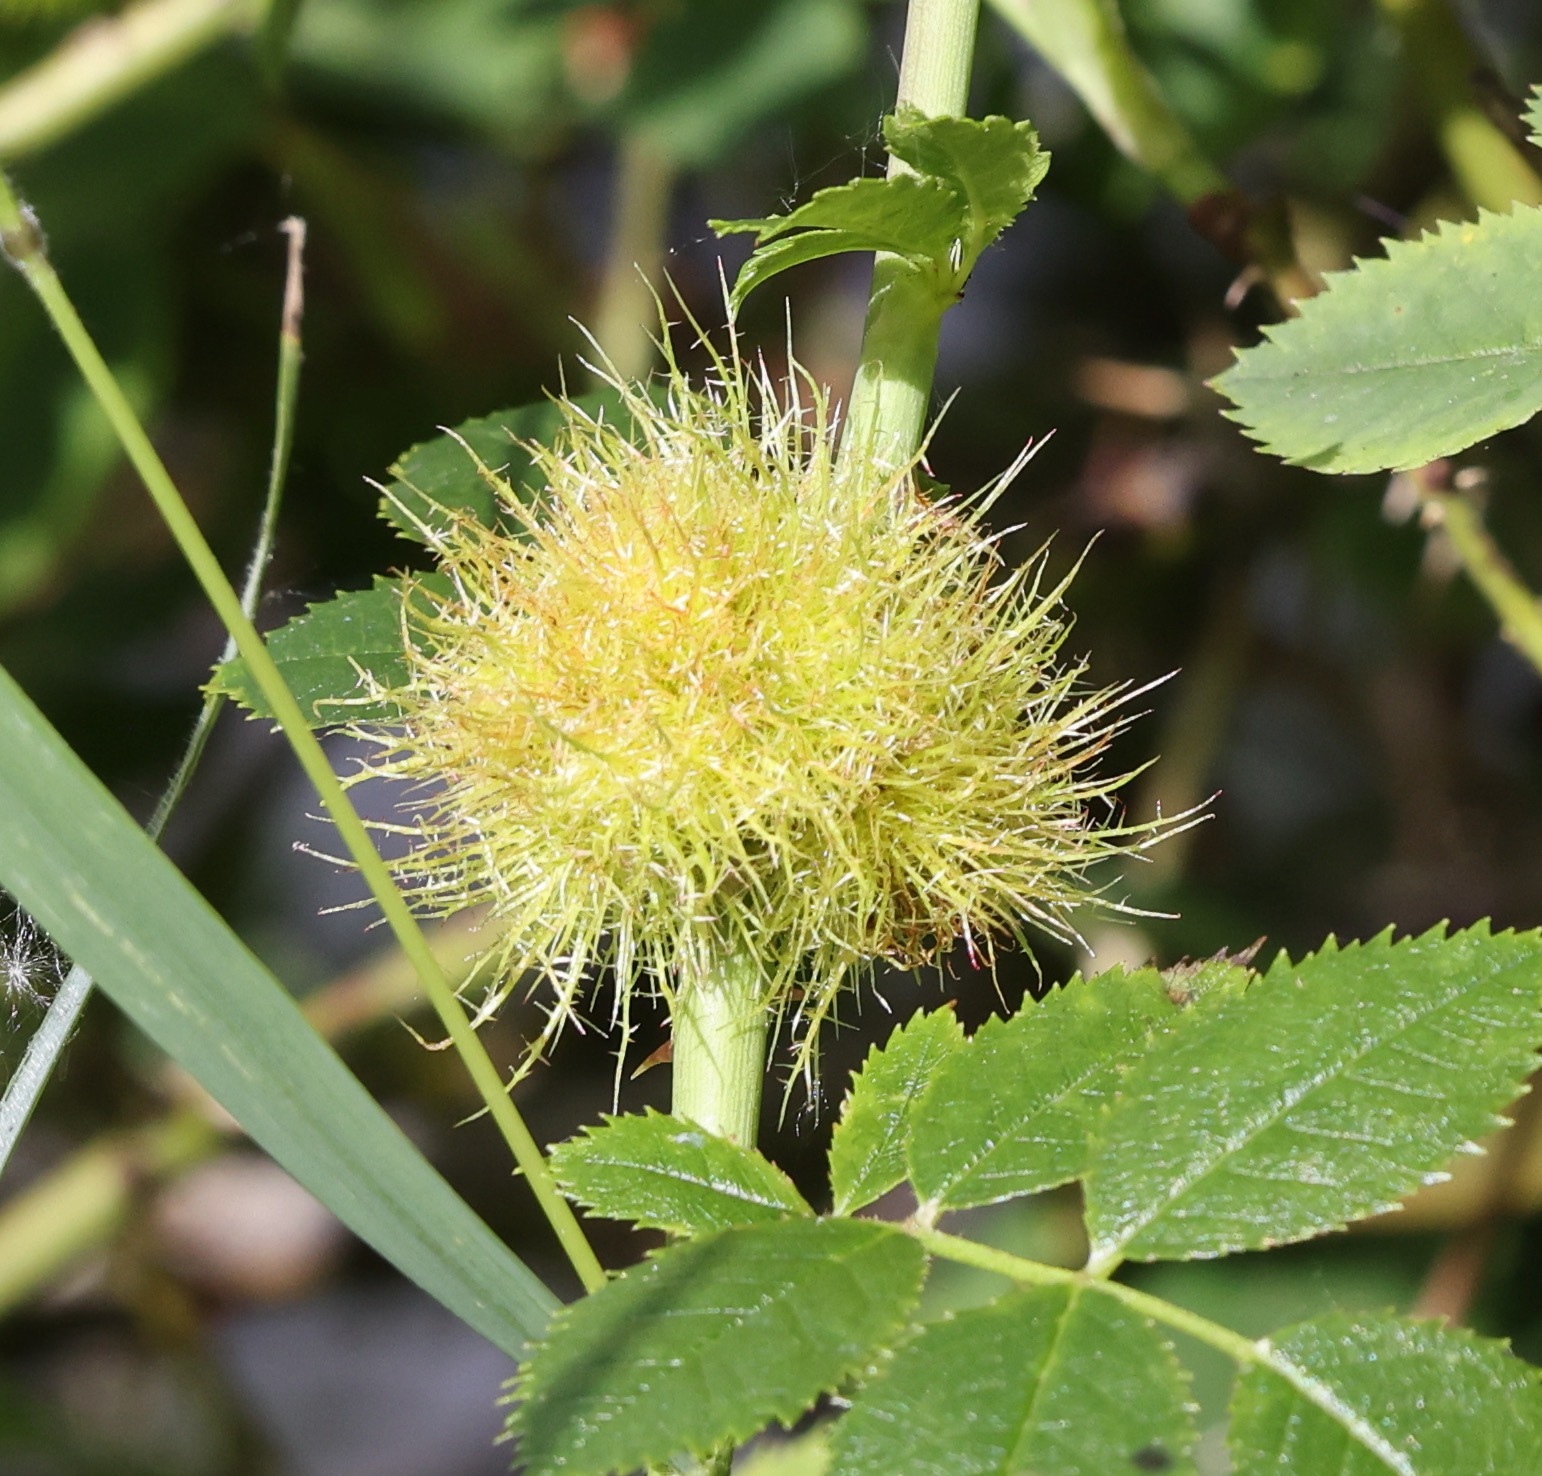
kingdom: Animalia
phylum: Arthropoda
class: Insecta
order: Hymenoptera
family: Cynipidae
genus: Diplolepis
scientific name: Diplolepis rosae
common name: Bedeguar gall
